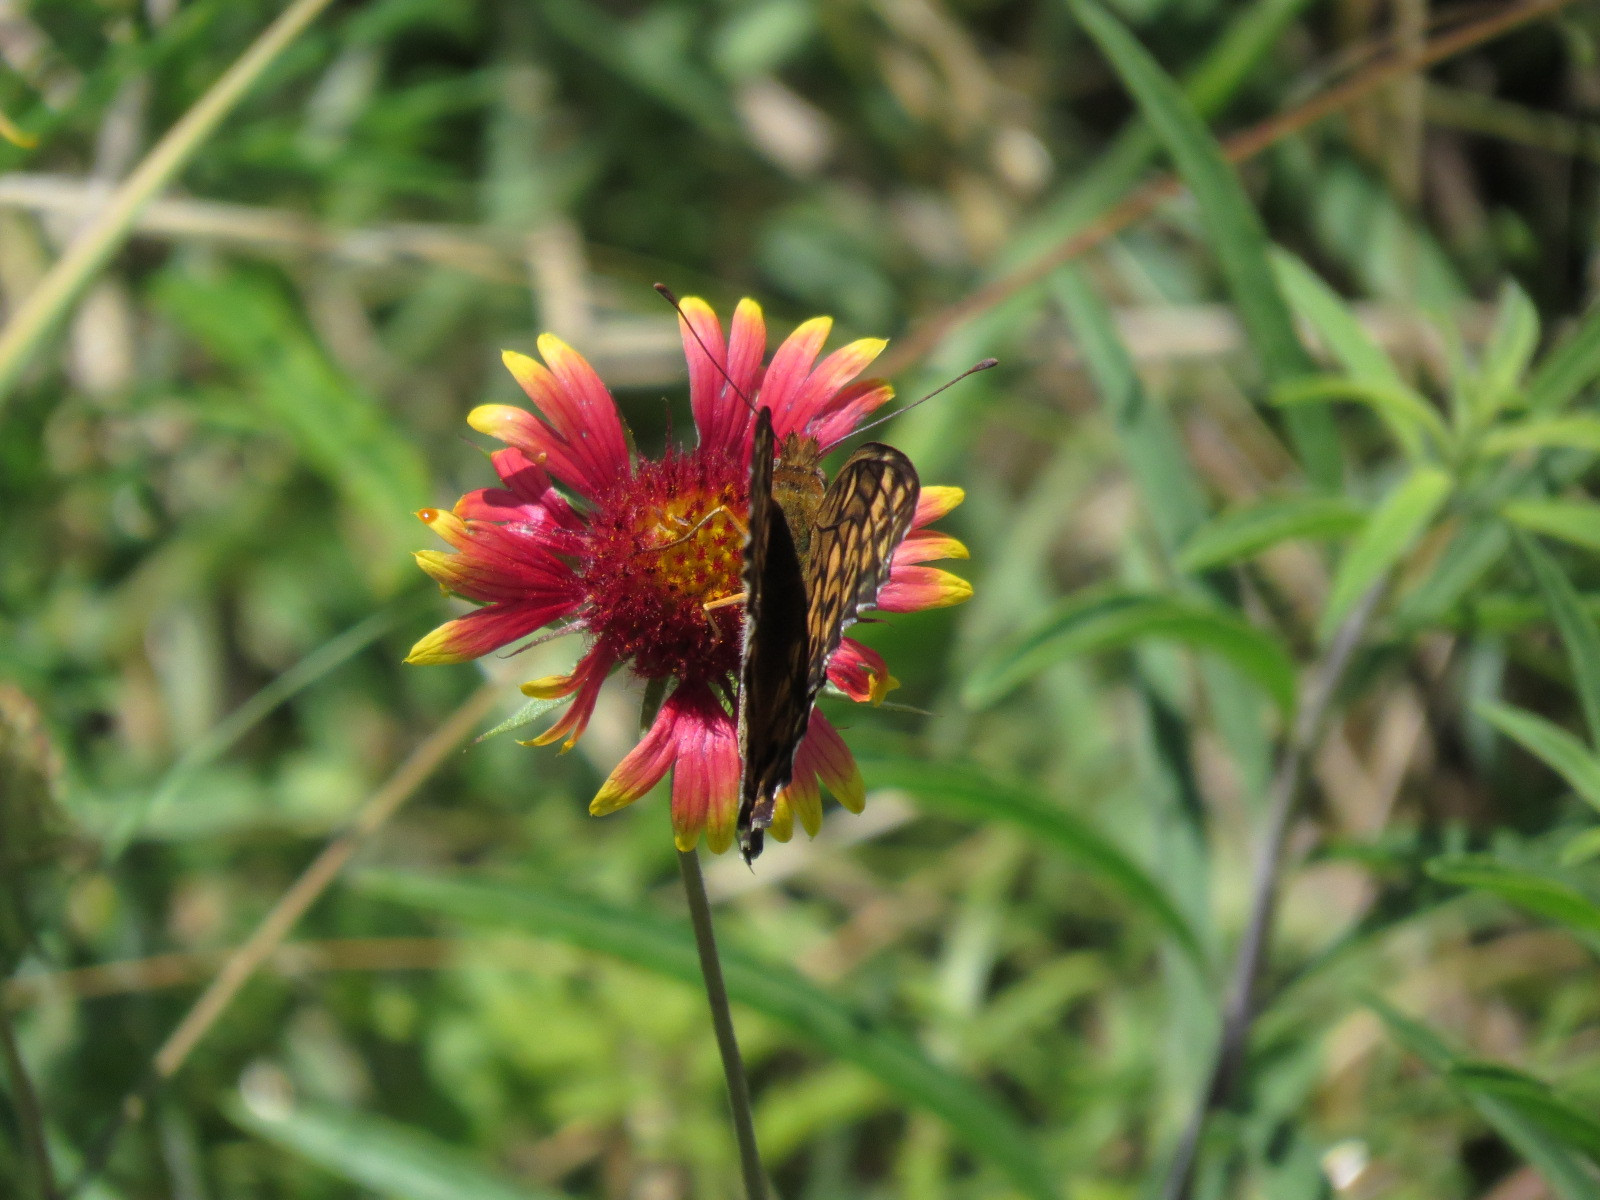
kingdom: Plantae
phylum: Tracheophyta
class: Magnoliopsida
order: Asterales
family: Asteraceae
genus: Gaillardia
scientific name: Gaillardia pulchella
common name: Firewheel
